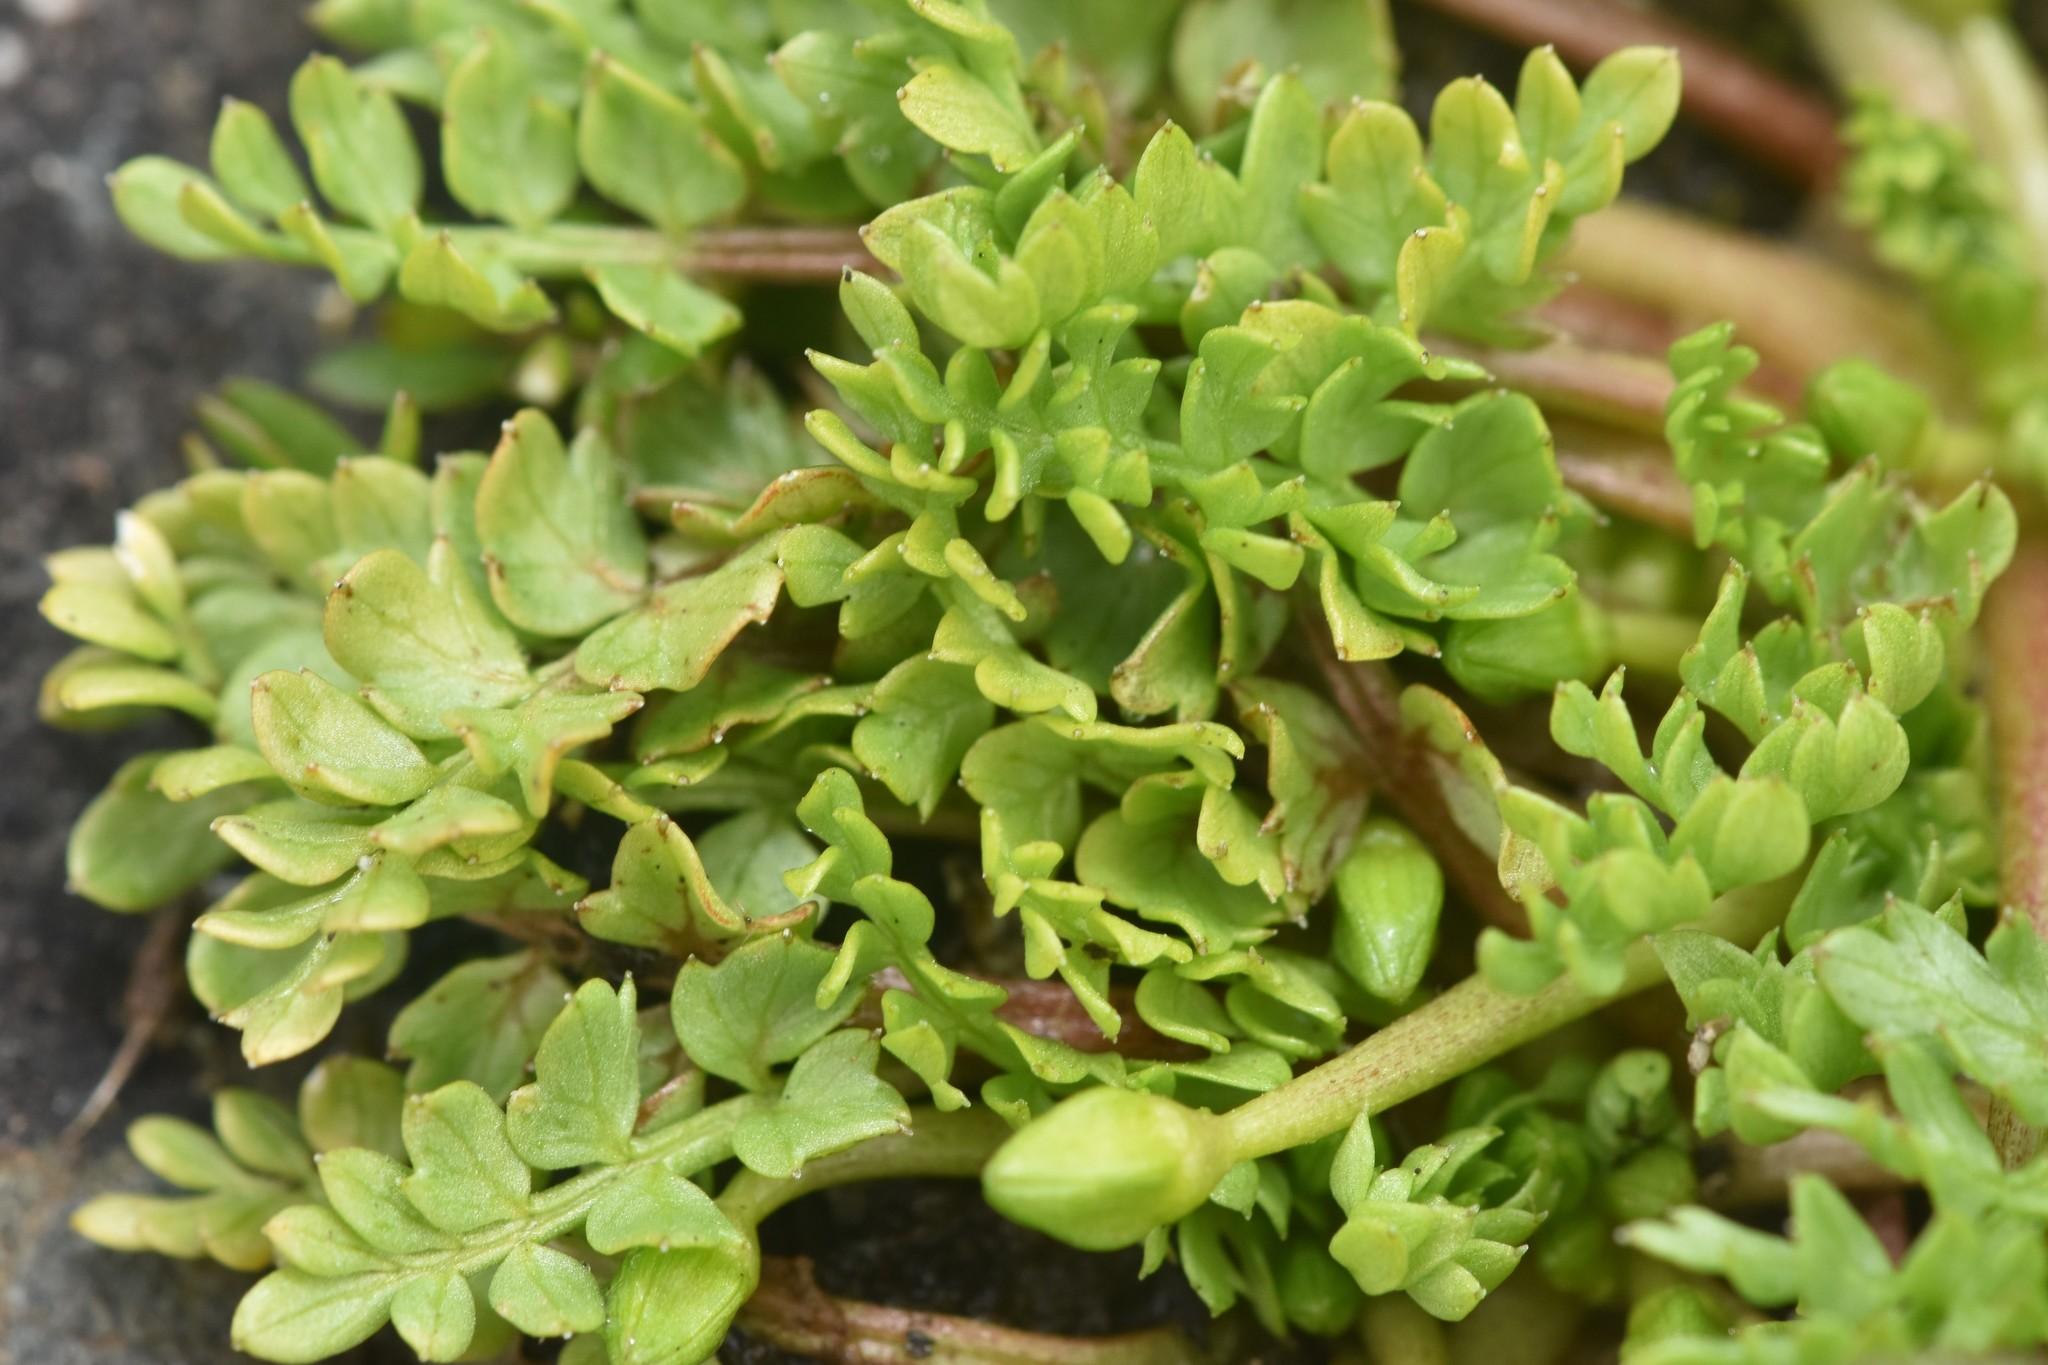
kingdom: Plantae
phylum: Tracheophyta
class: Magnoliopsida
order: Brassicales
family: Limnanthaceae
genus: Limnanthes
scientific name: Limnanthes macounii
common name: Macoun's meadowfoam
